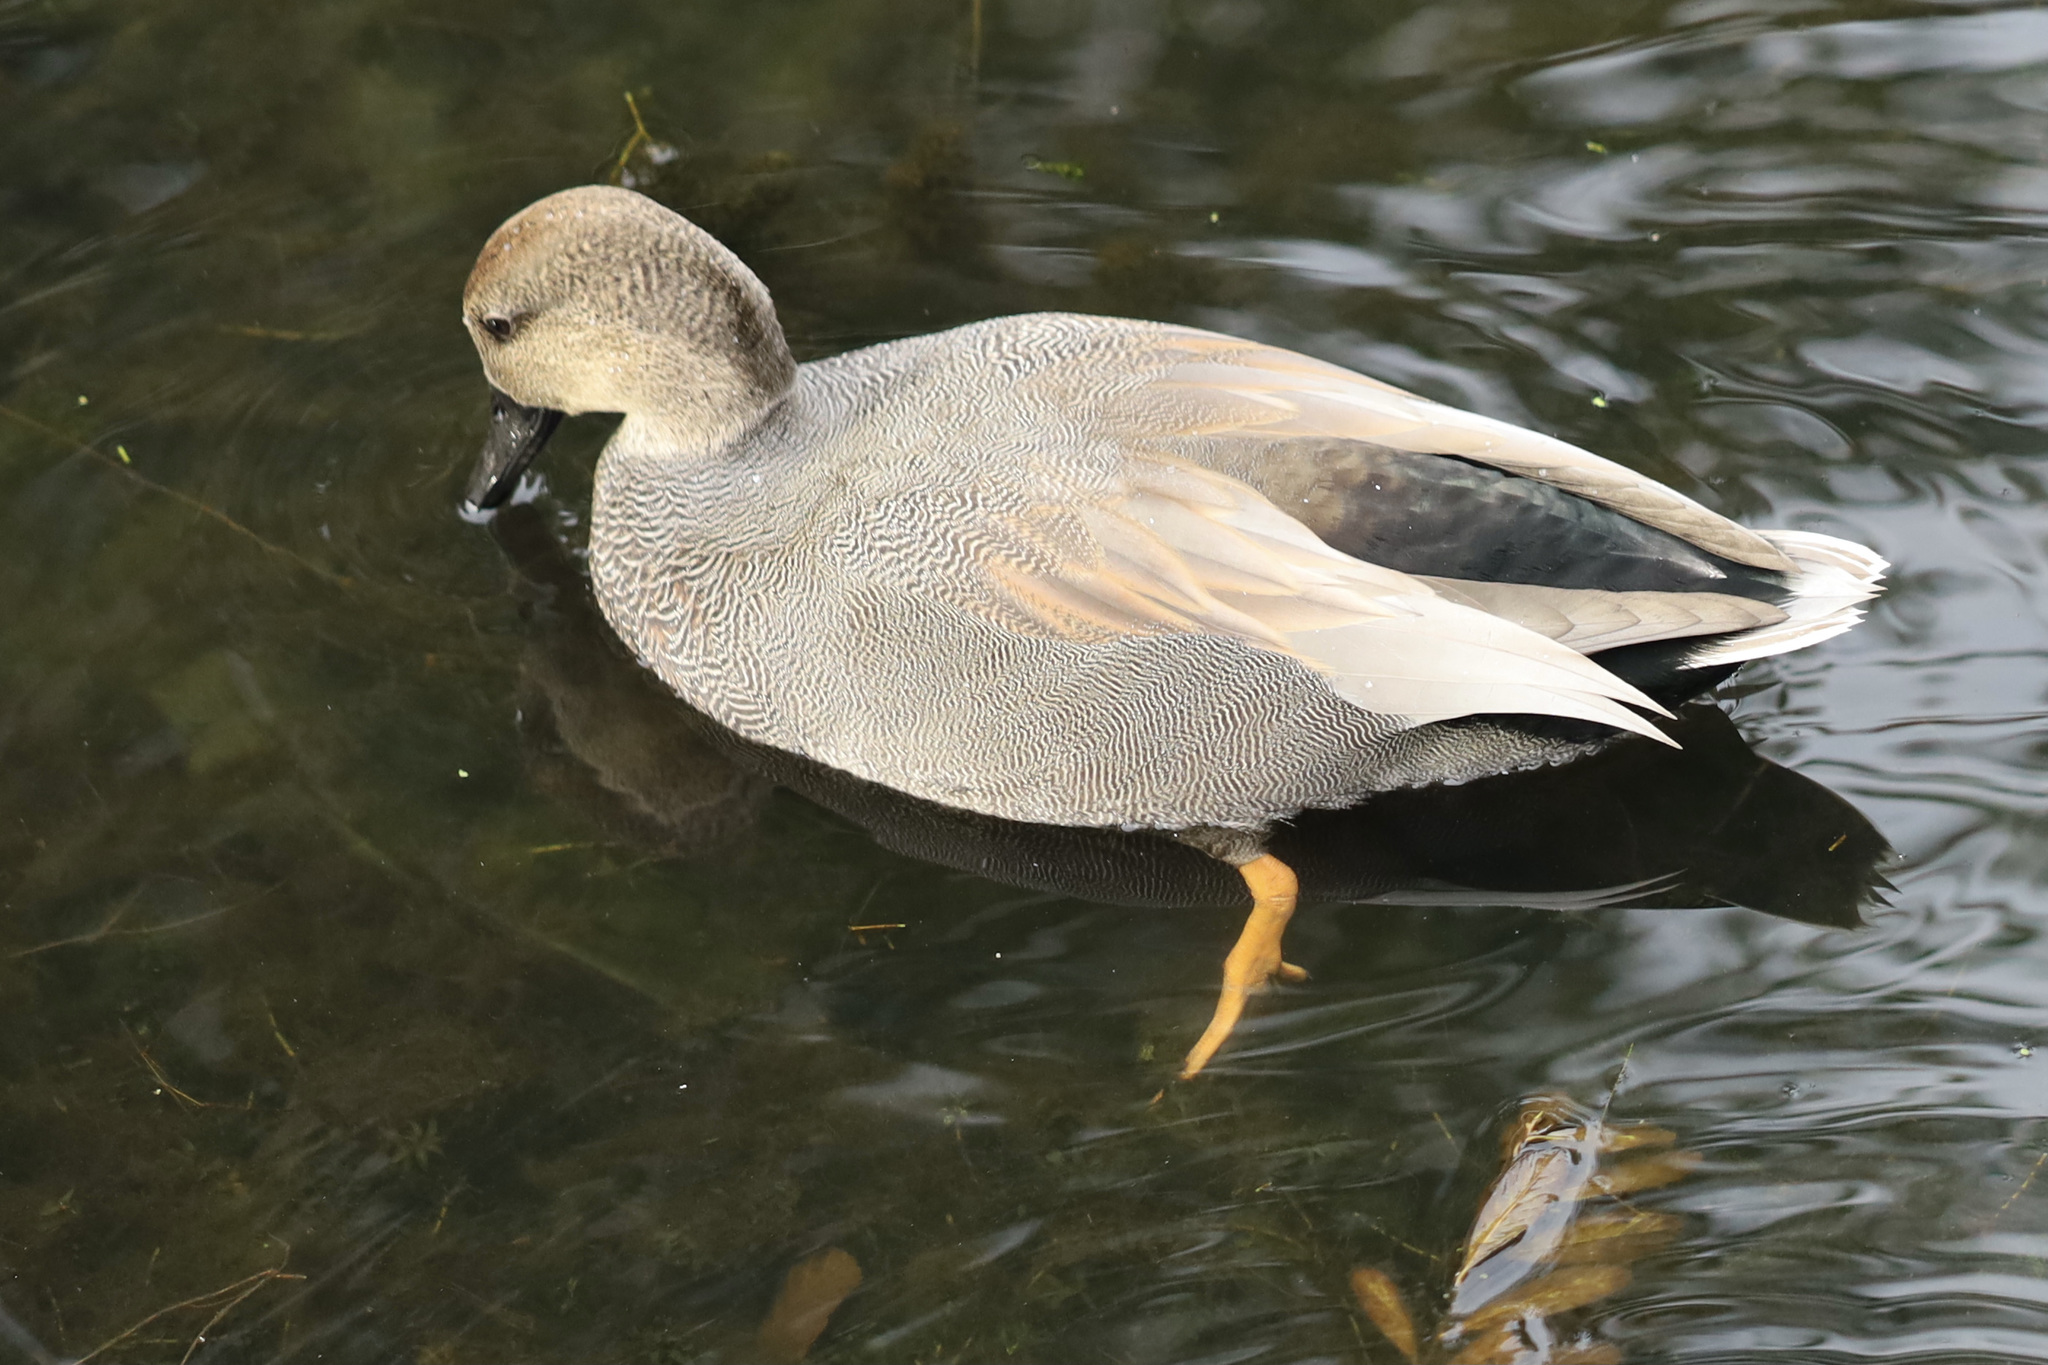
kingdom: Animalia
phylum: Chordata
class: Aves
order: Anseriformes
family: Anatidae
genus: Mareca
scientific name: Mareca strepera
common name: Gadwall
